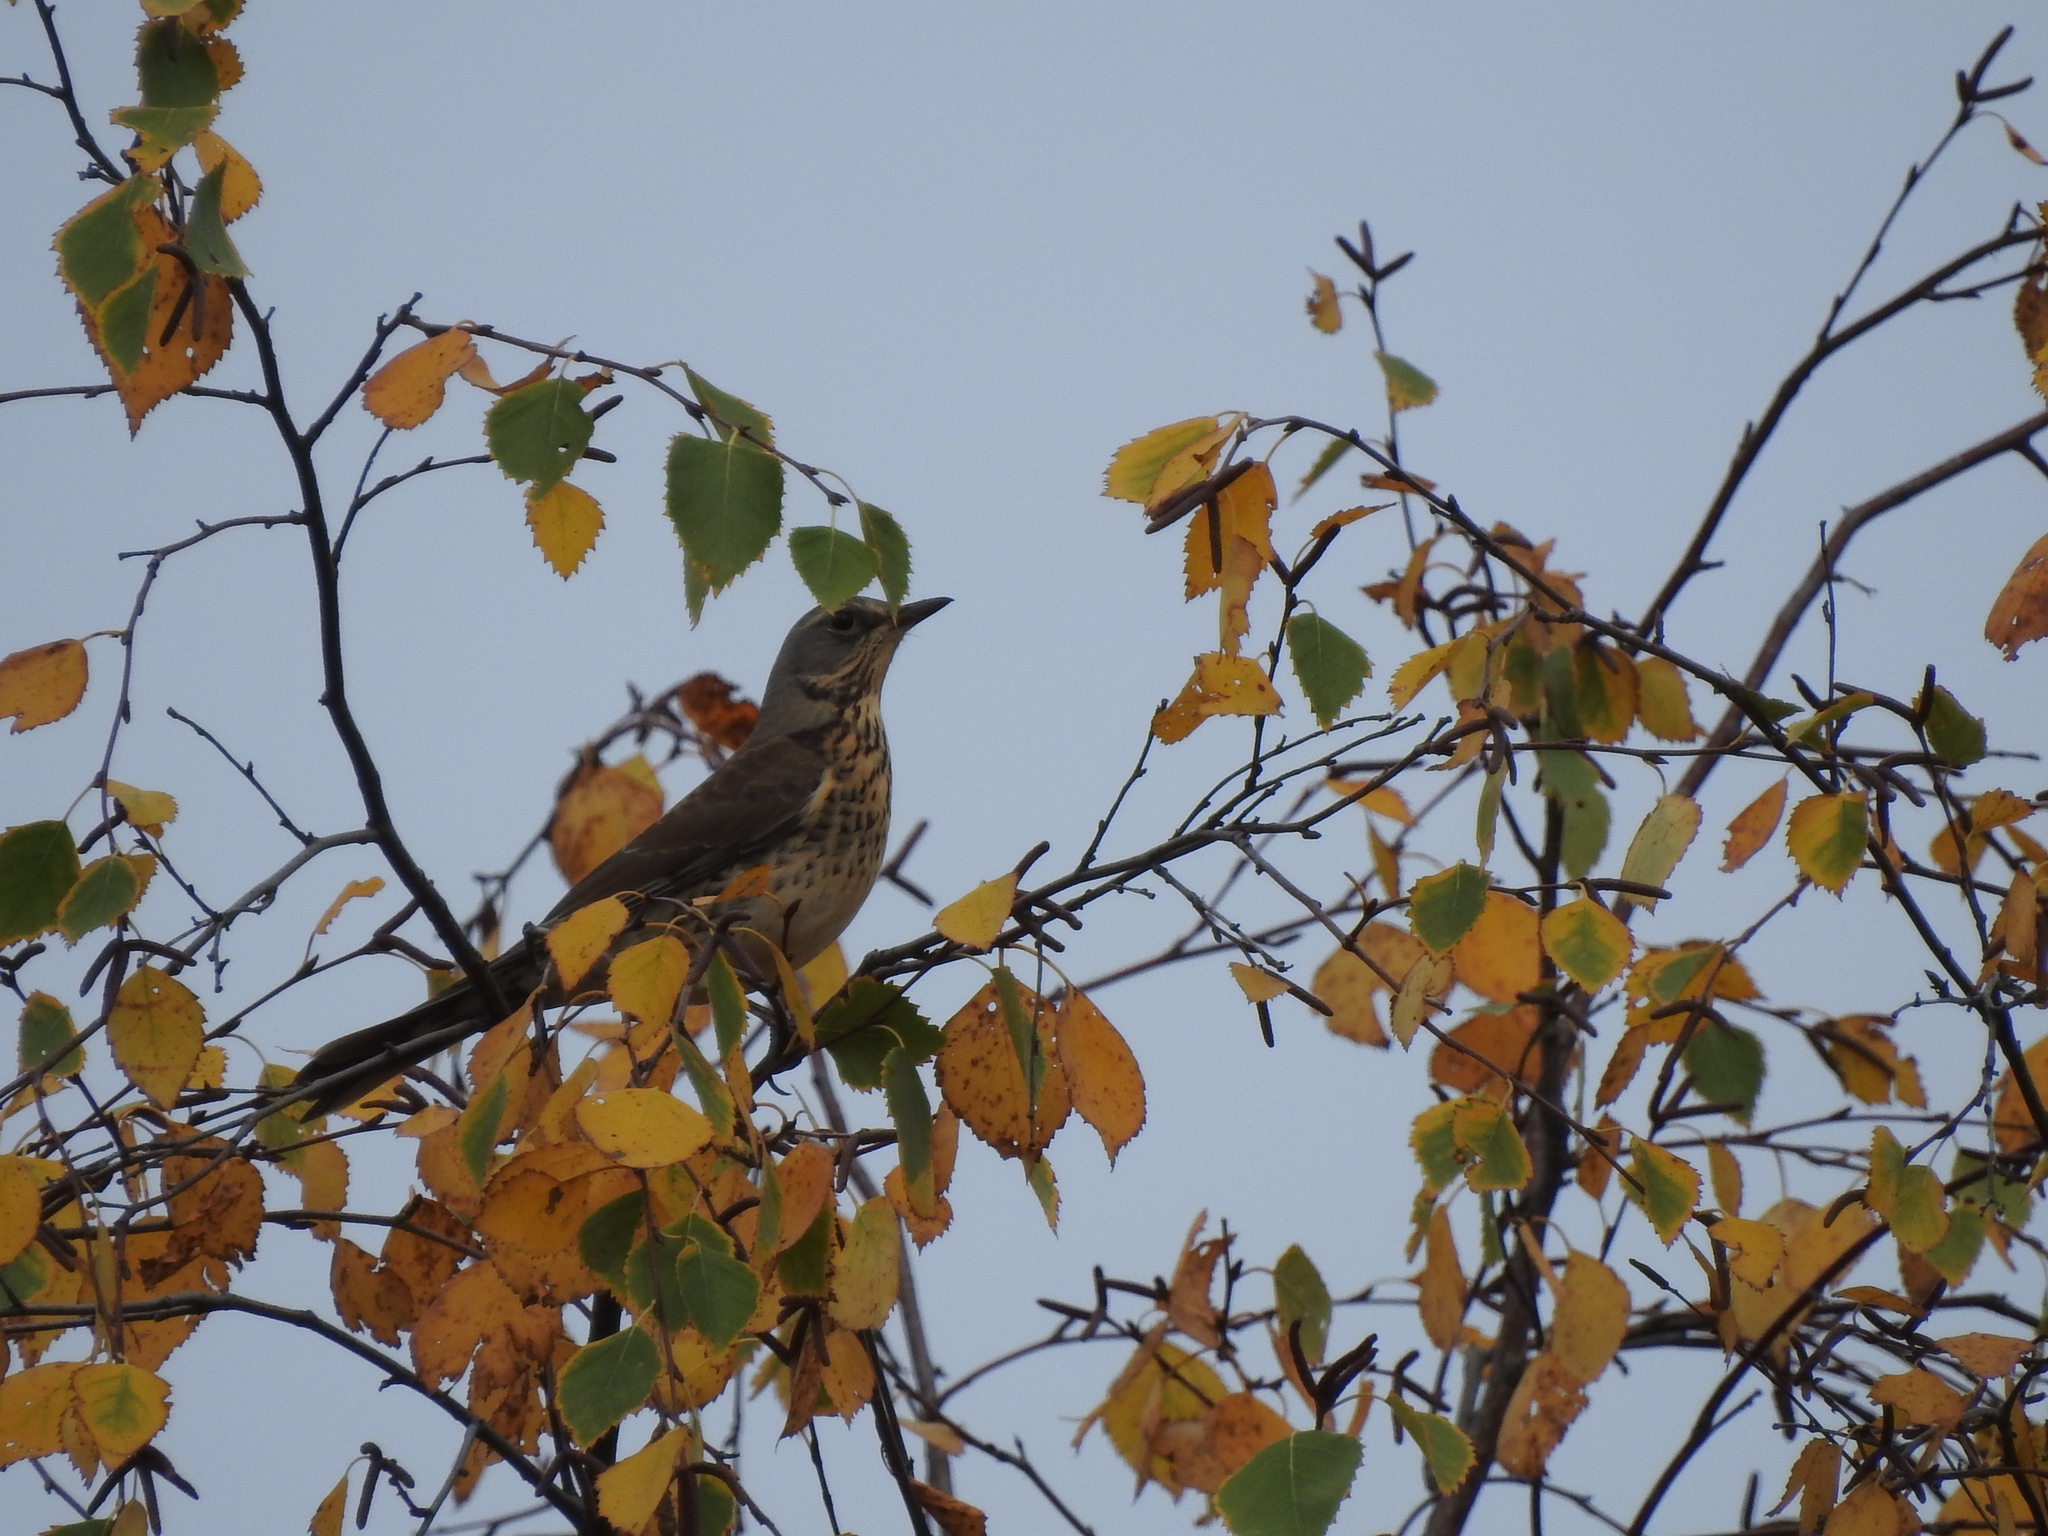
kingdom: Animalia
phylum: Chordata
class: Aves
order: Passeriformes
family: Turdidae
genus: Turdus
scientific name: Turdus pilaris
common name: Fieldfare
